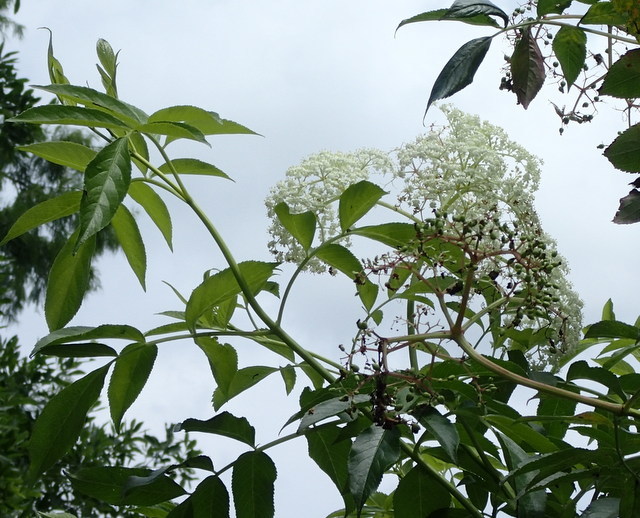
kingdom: Plantae
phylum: Tracheophyta
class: Magnoliopsida
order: Dipsacales
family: Viburnaceae
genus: Sambucus
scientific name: Sambucus canadensis
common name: American elder
